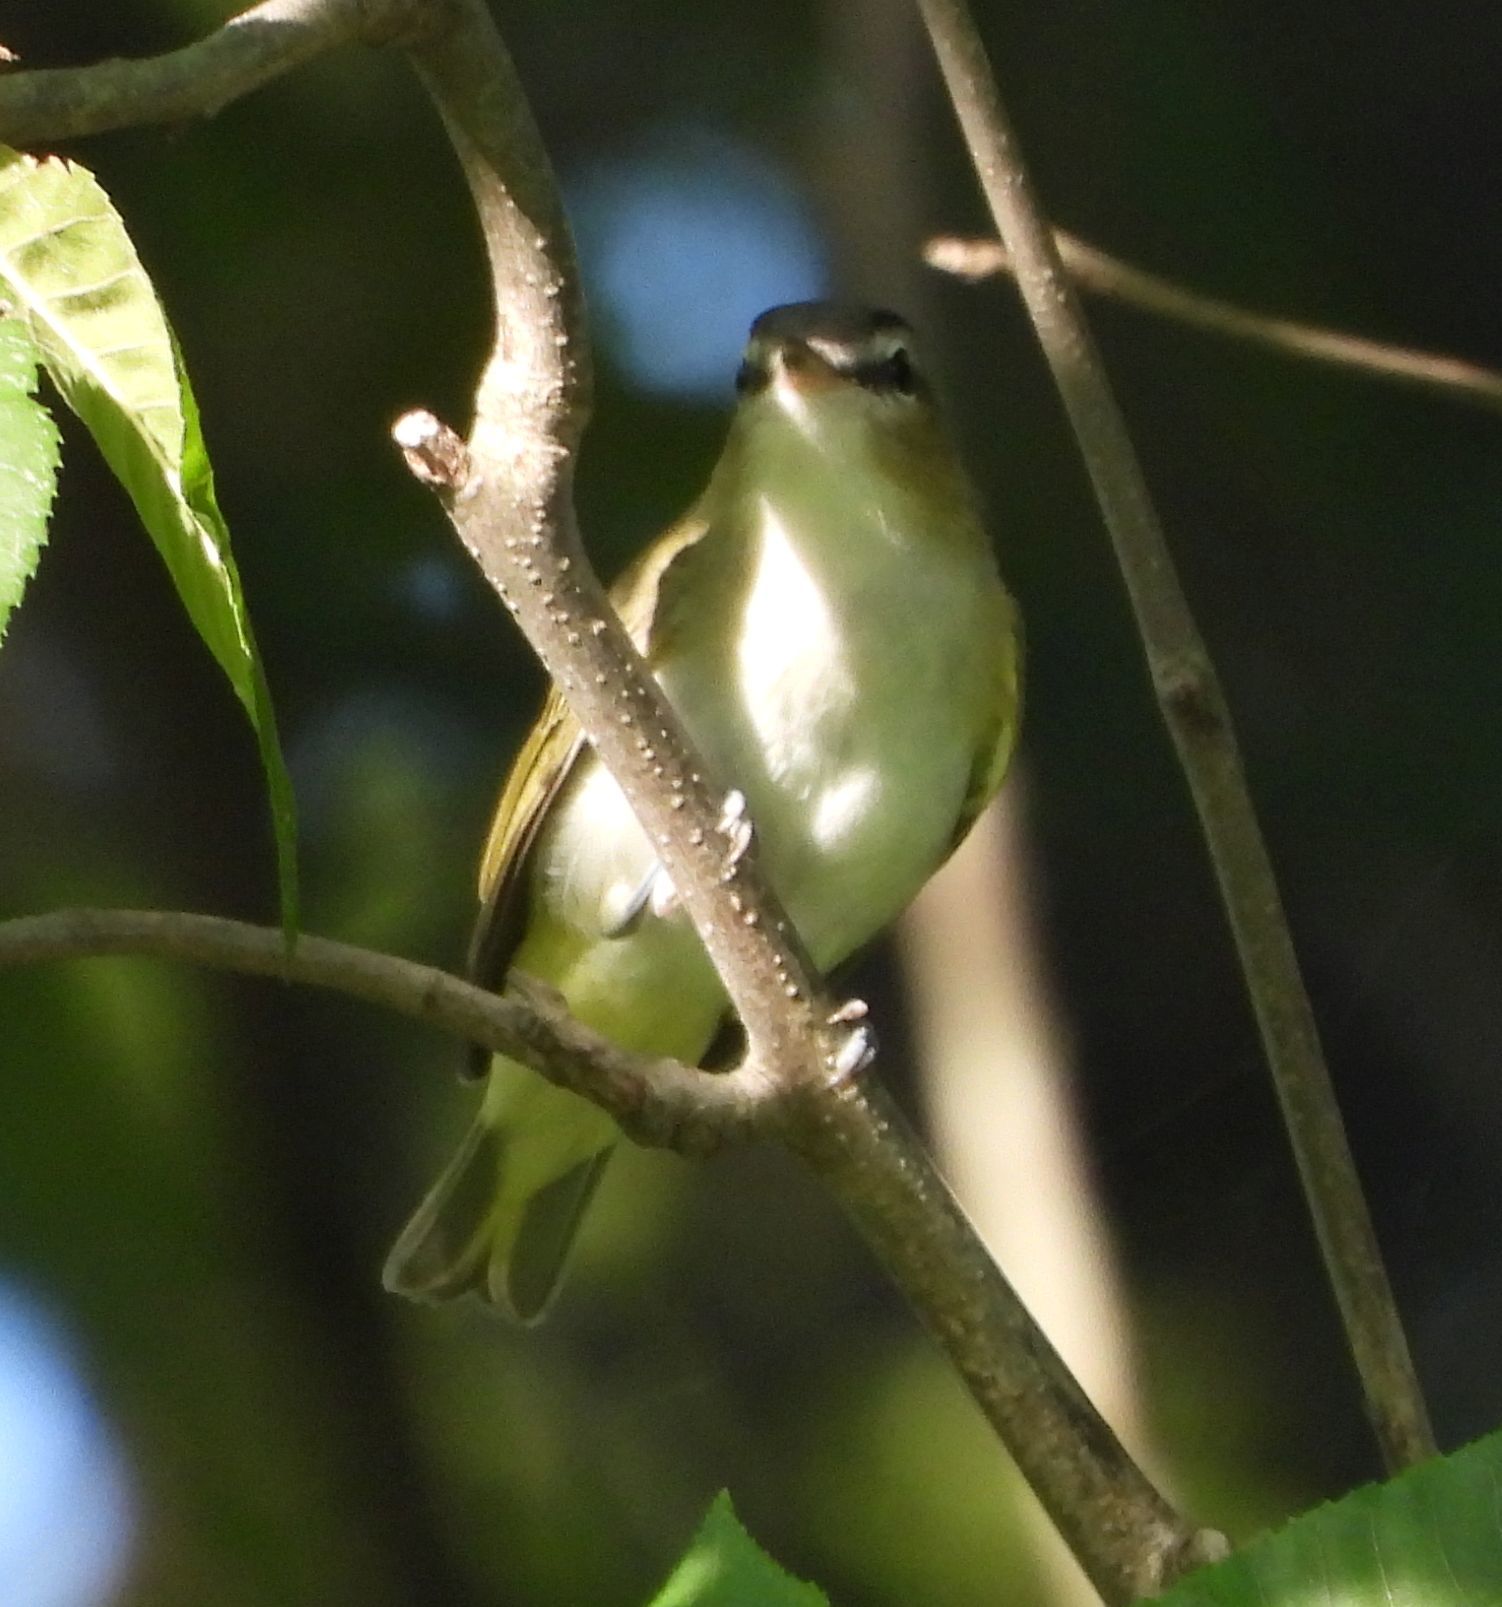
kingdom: Animalia
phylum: Chordata
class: Aves
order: Passeriformes
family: Vireonidae
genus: Vireo
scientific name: Vireo olivaceus
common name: Red-eyed vireo
